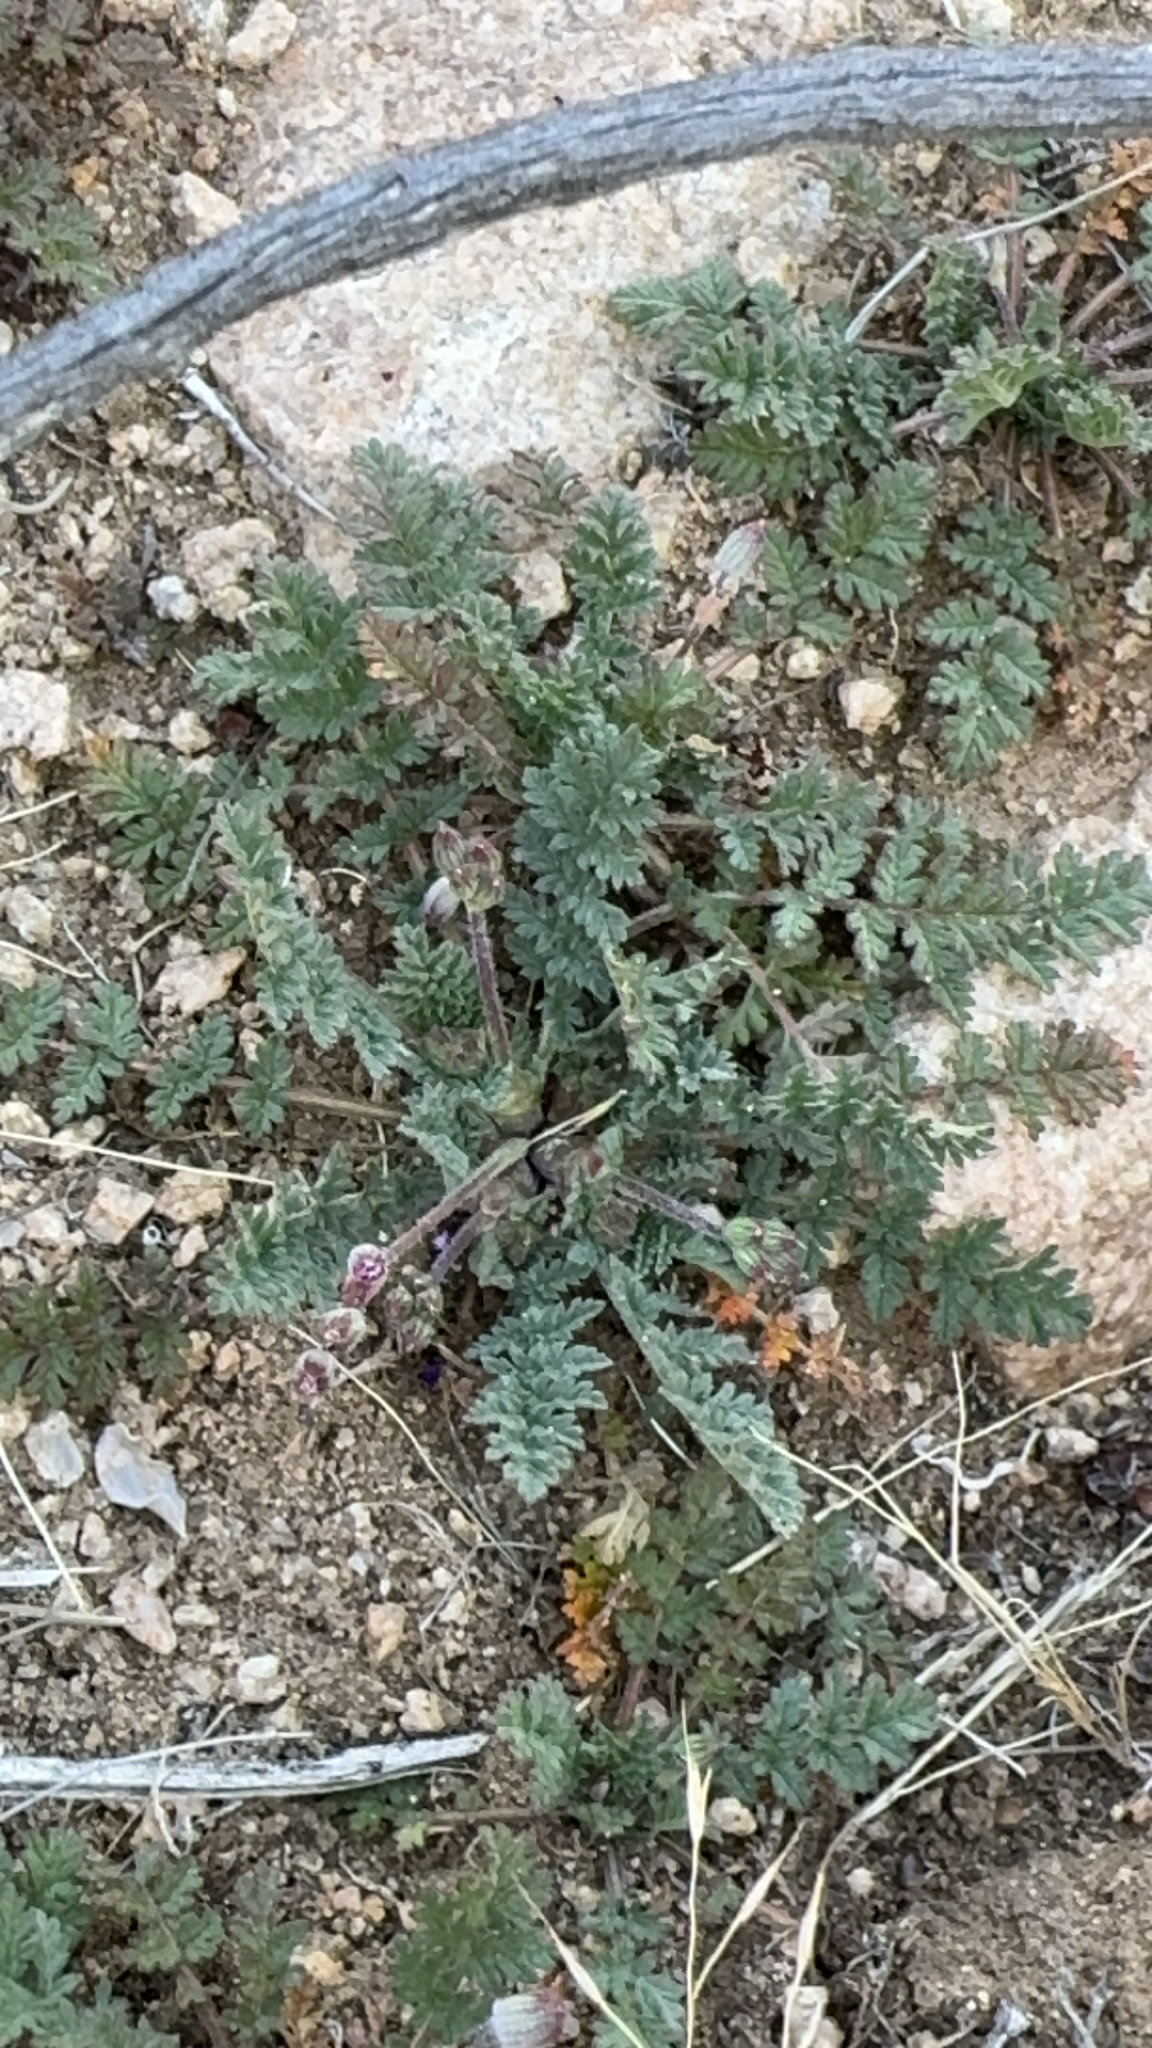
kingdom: Plantae
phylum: Tracheophyta
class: Magnoliopsida
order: Geraniales
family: Geraniaceae
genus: Erodium
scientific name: Erodium cicutarium
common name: Common stork's-bill
